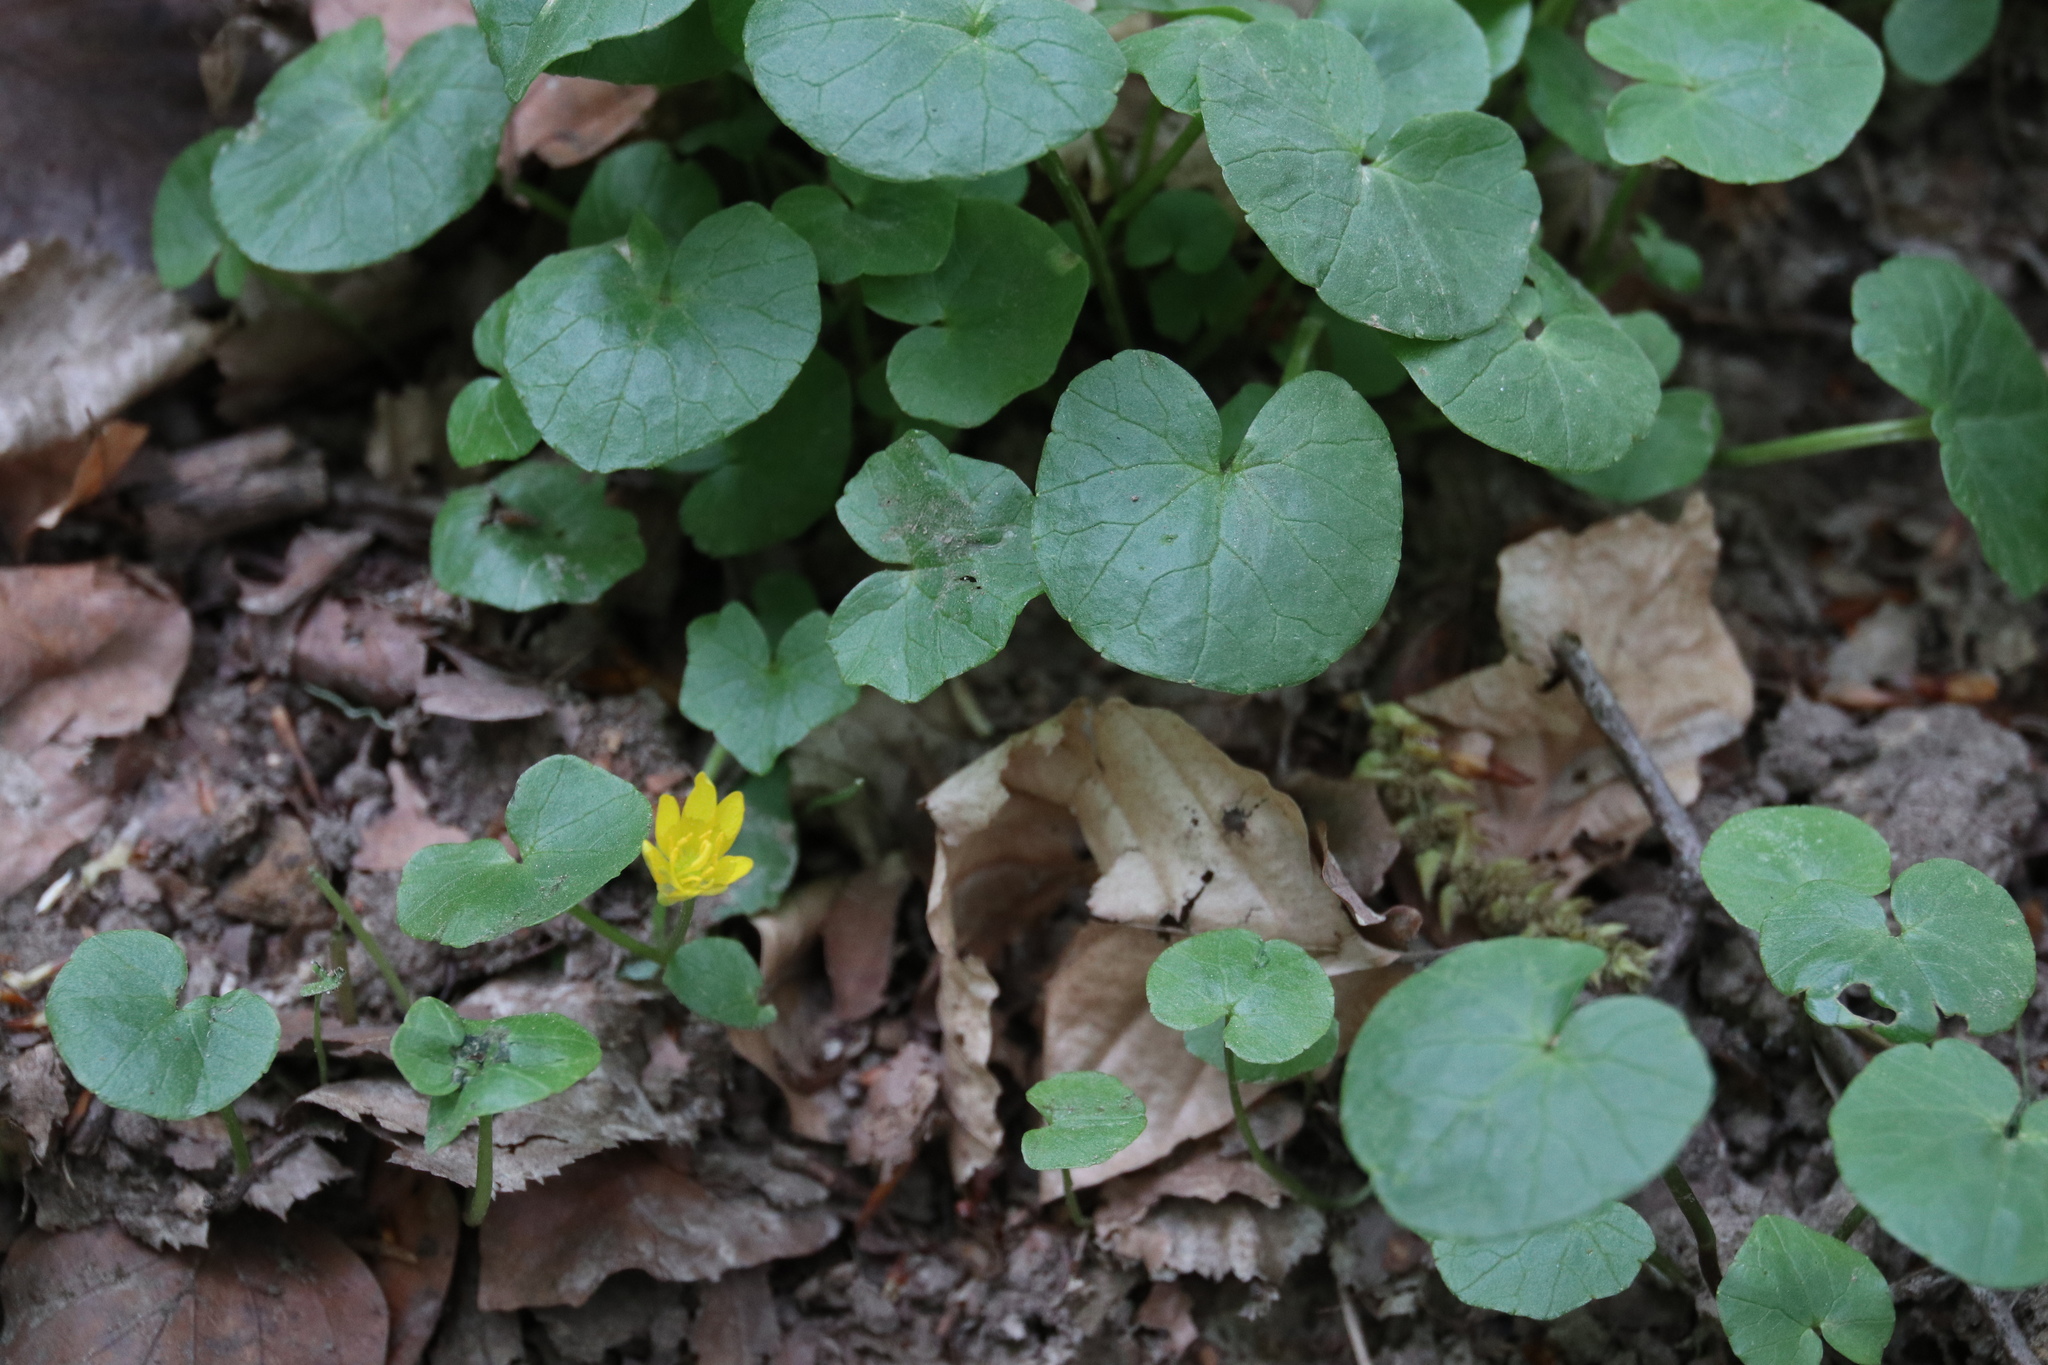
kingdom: Plantae
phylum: Tracheophyta
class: Magnoliopsida
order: Ranunculales
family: Ranunculaceae
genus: Ficaria
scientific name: Ficaria verna
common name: Lesser celandine
